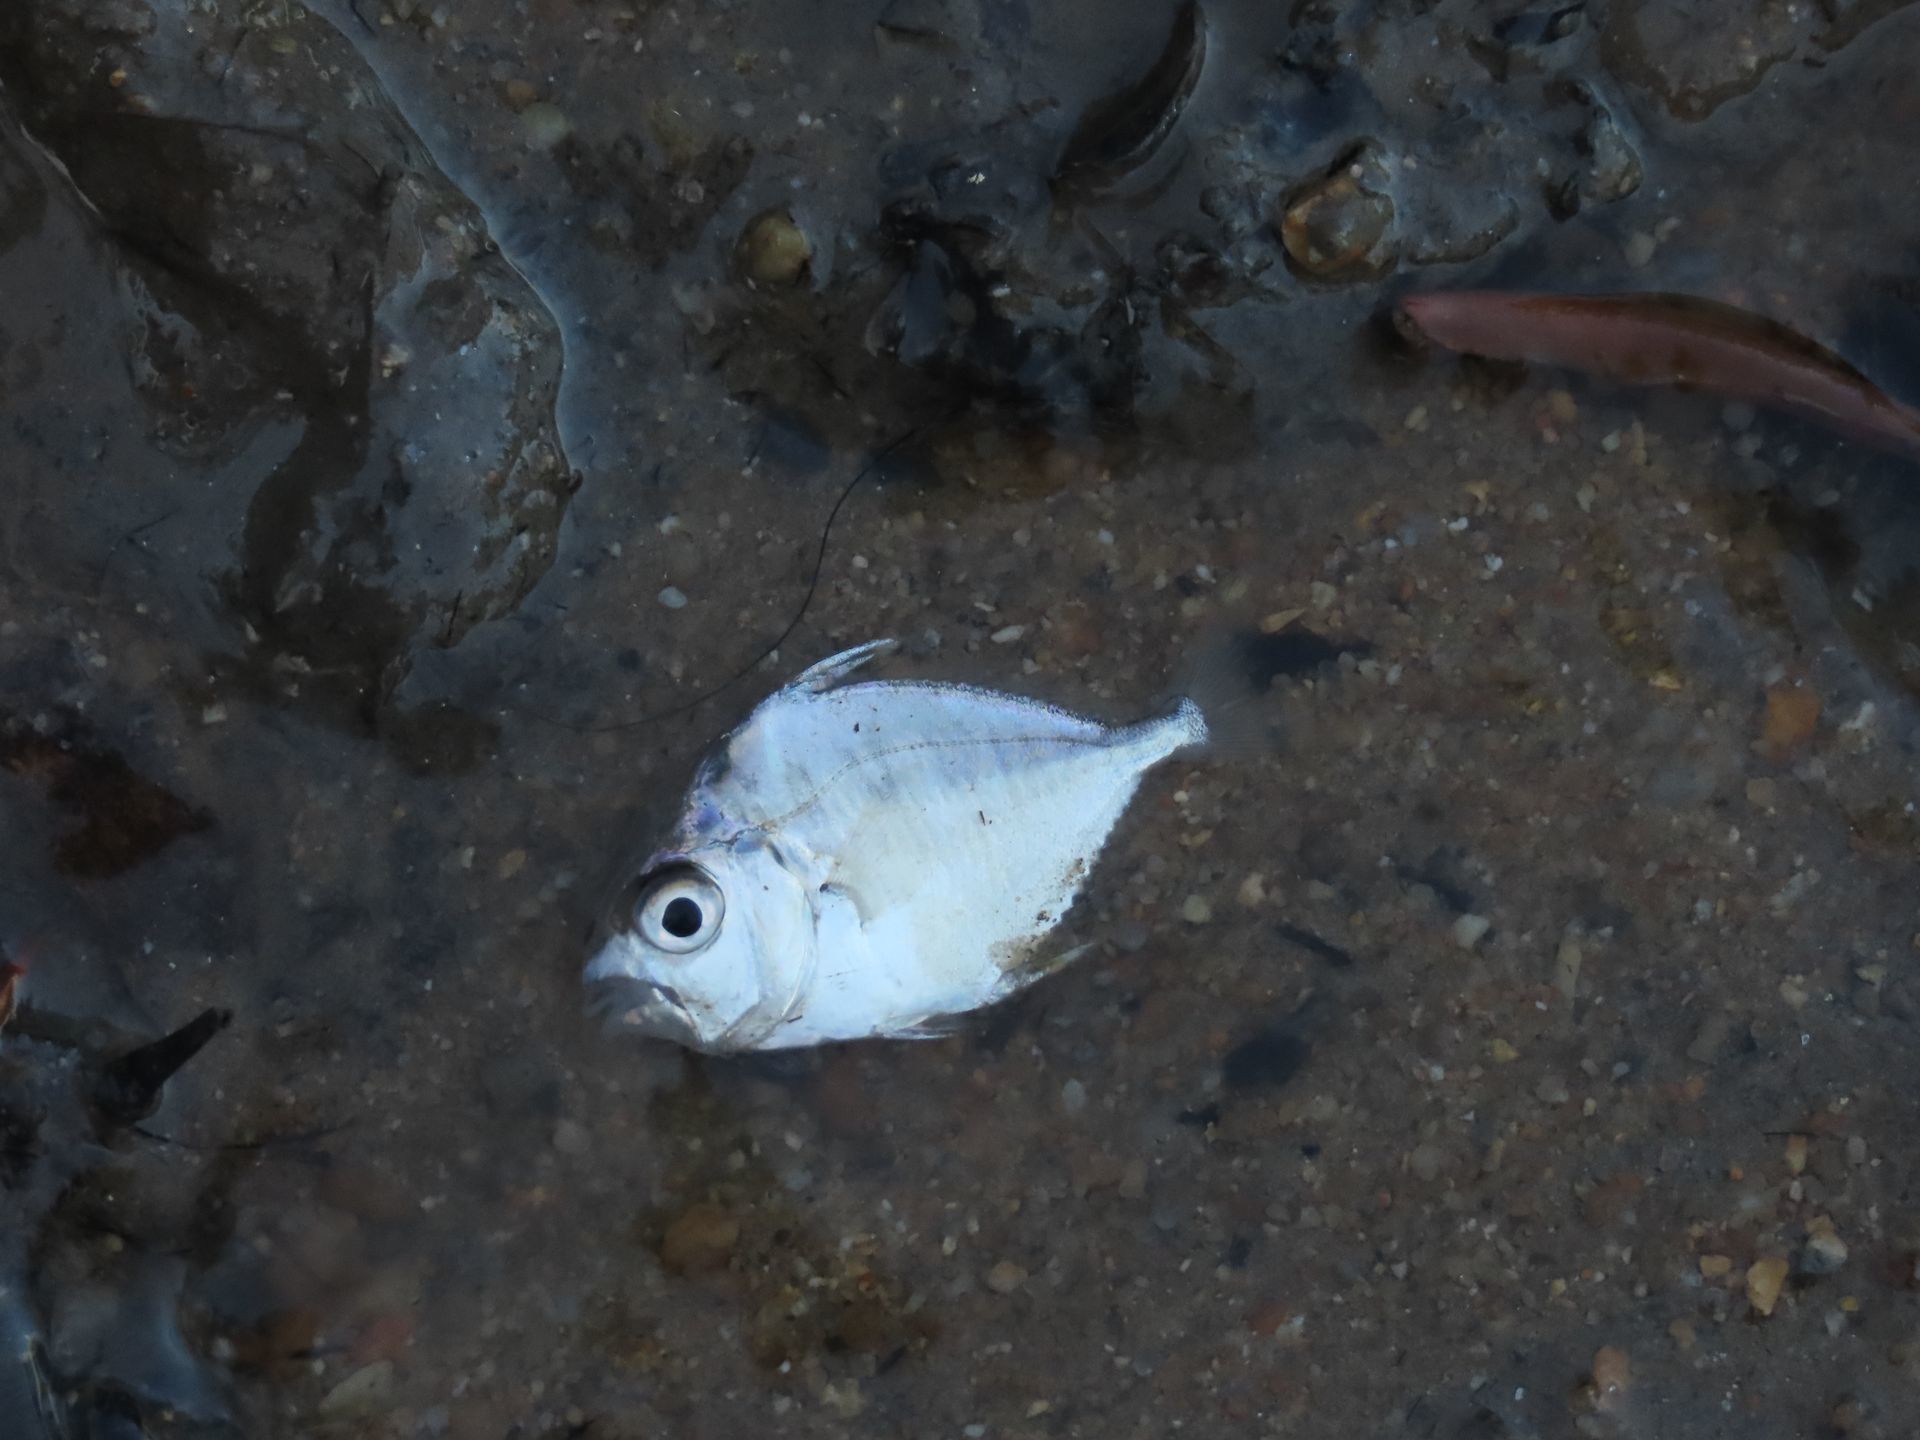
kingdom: Animalia
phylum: Chordata
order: Perciformes
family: Leiognathidae
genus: Leiognathus
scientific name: Leiognathus equulus
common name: Common ponyfish
